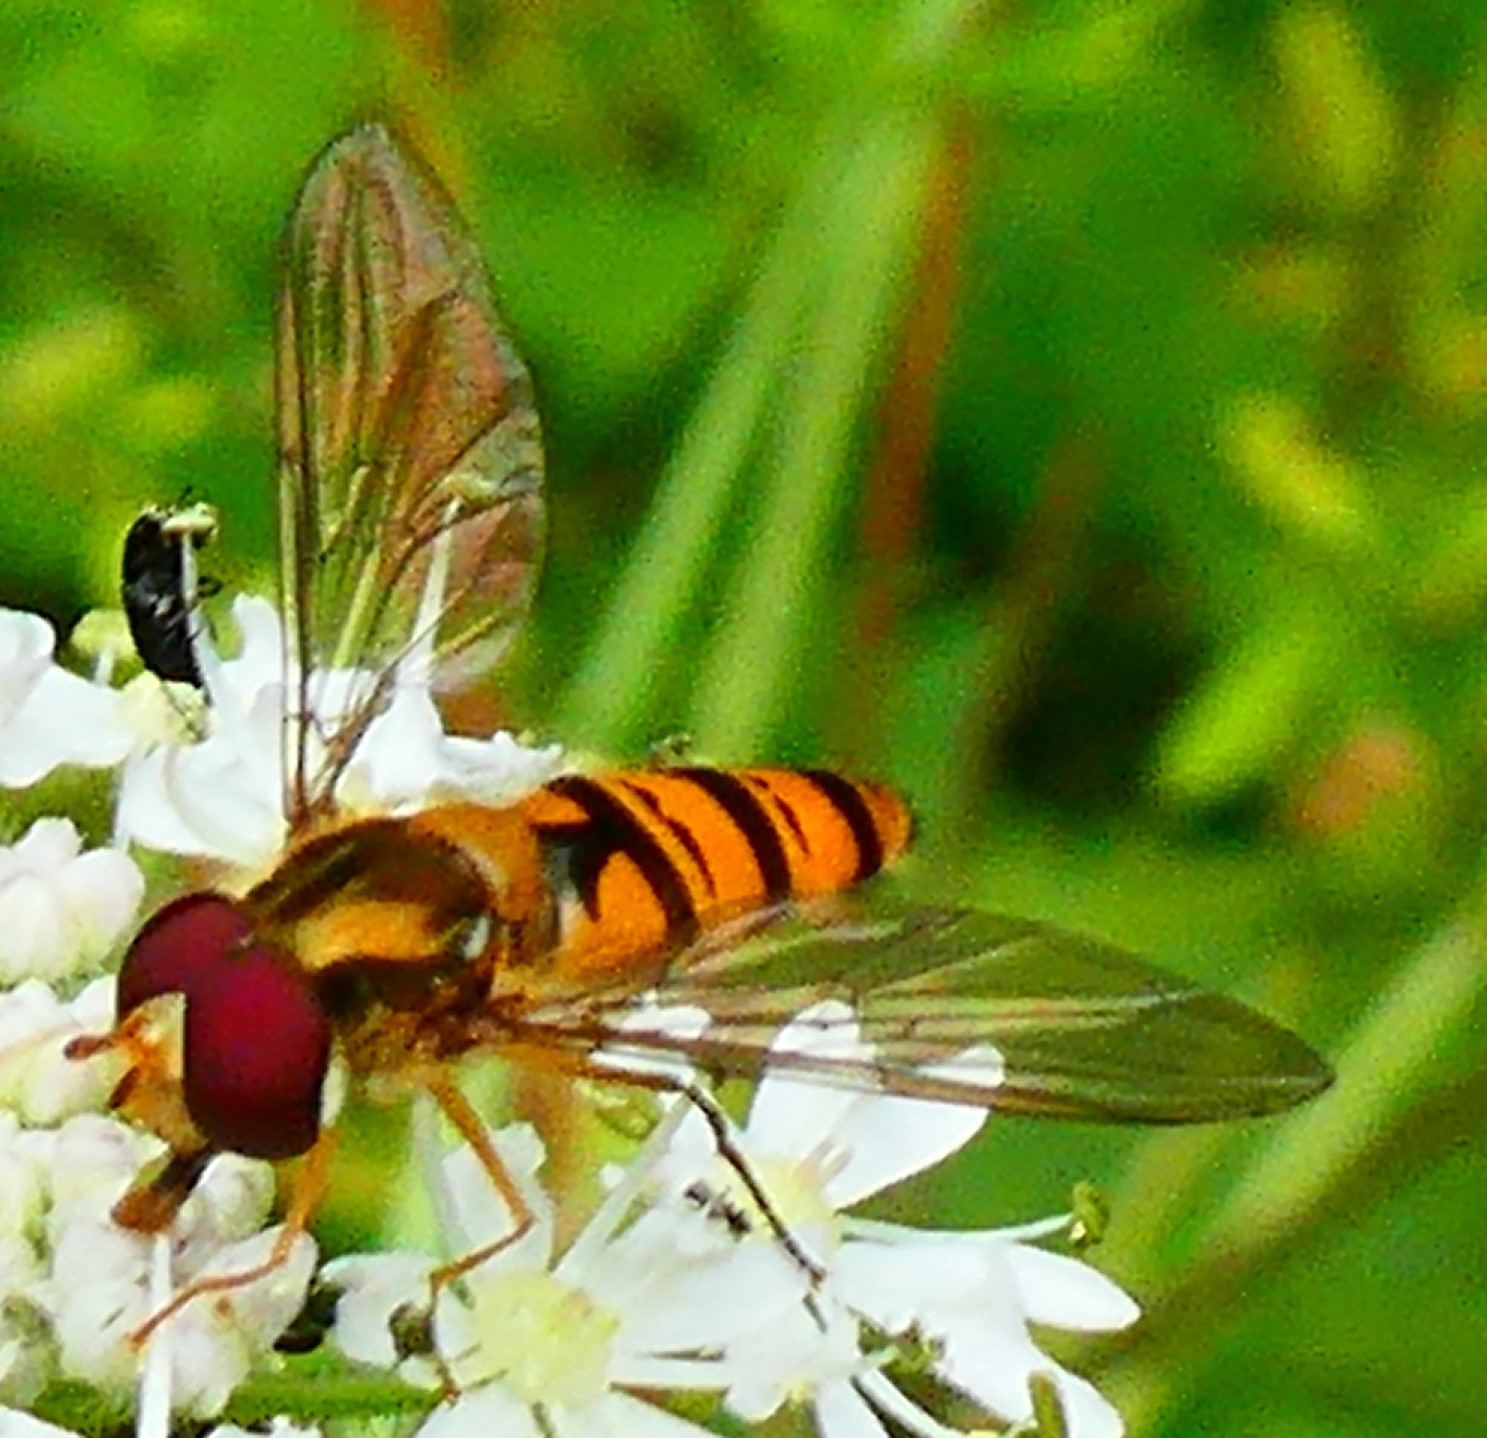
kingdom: Animalia
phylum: Arthropoda
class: Insecta
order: Diptera
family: Syrphidae
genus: Episyrphus
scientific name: Episyrphus balteatus
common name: Marmalade hoverfly
